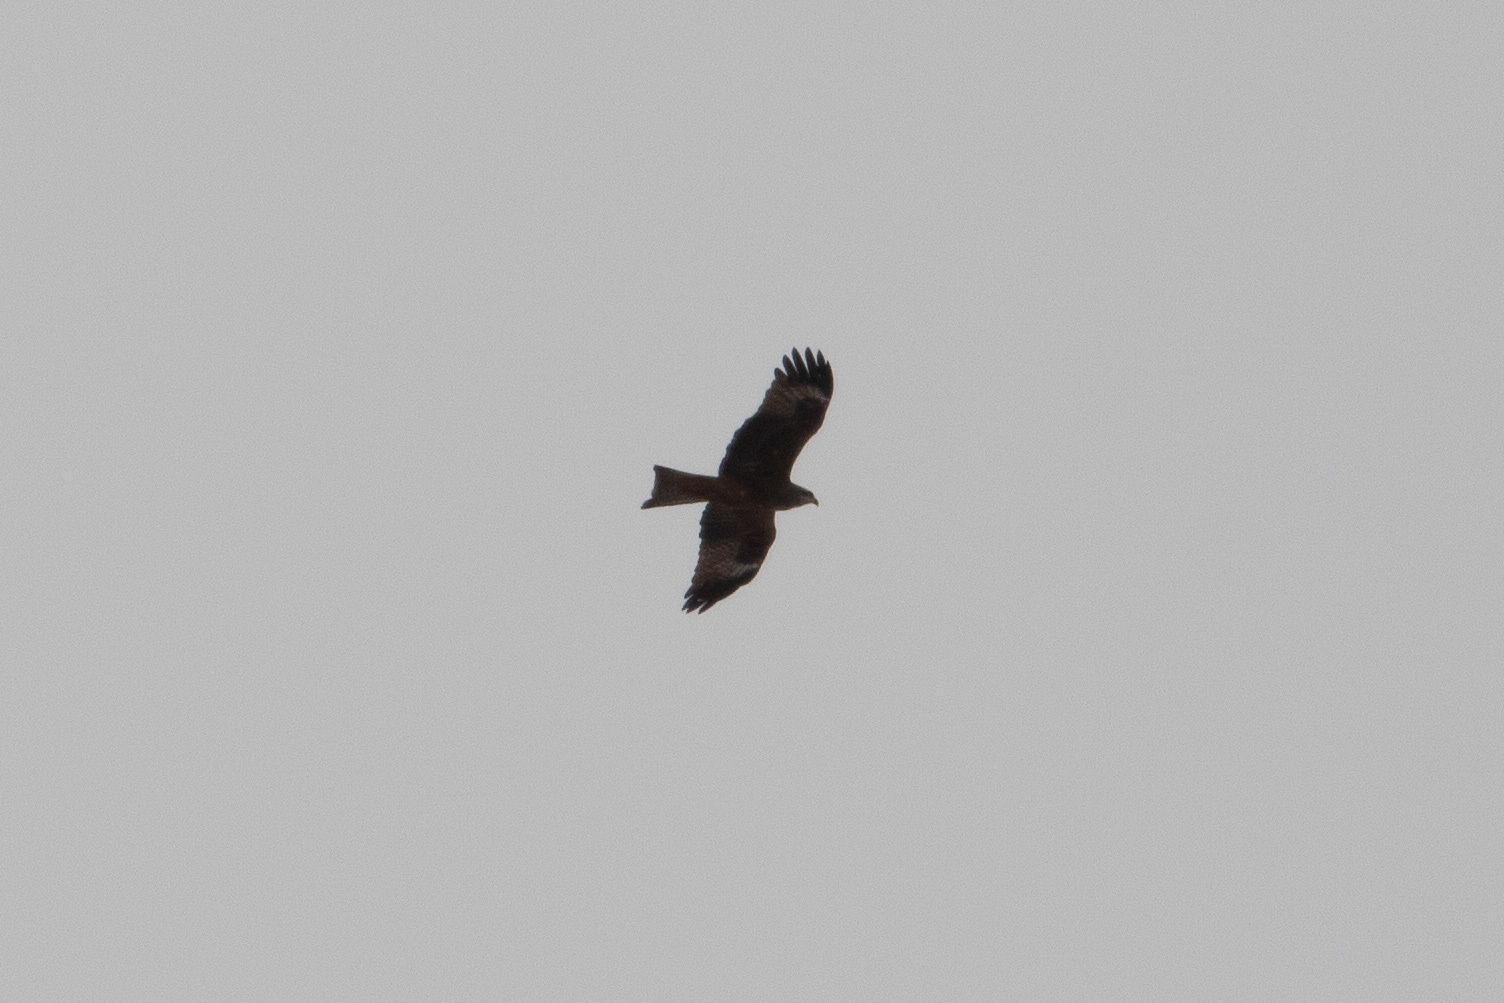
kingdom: Animalia
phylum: Chordata
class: Aves
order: Accipitriformes
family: Accipitridae
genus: Milvus
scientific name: Milvus migrans
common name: Black kite
